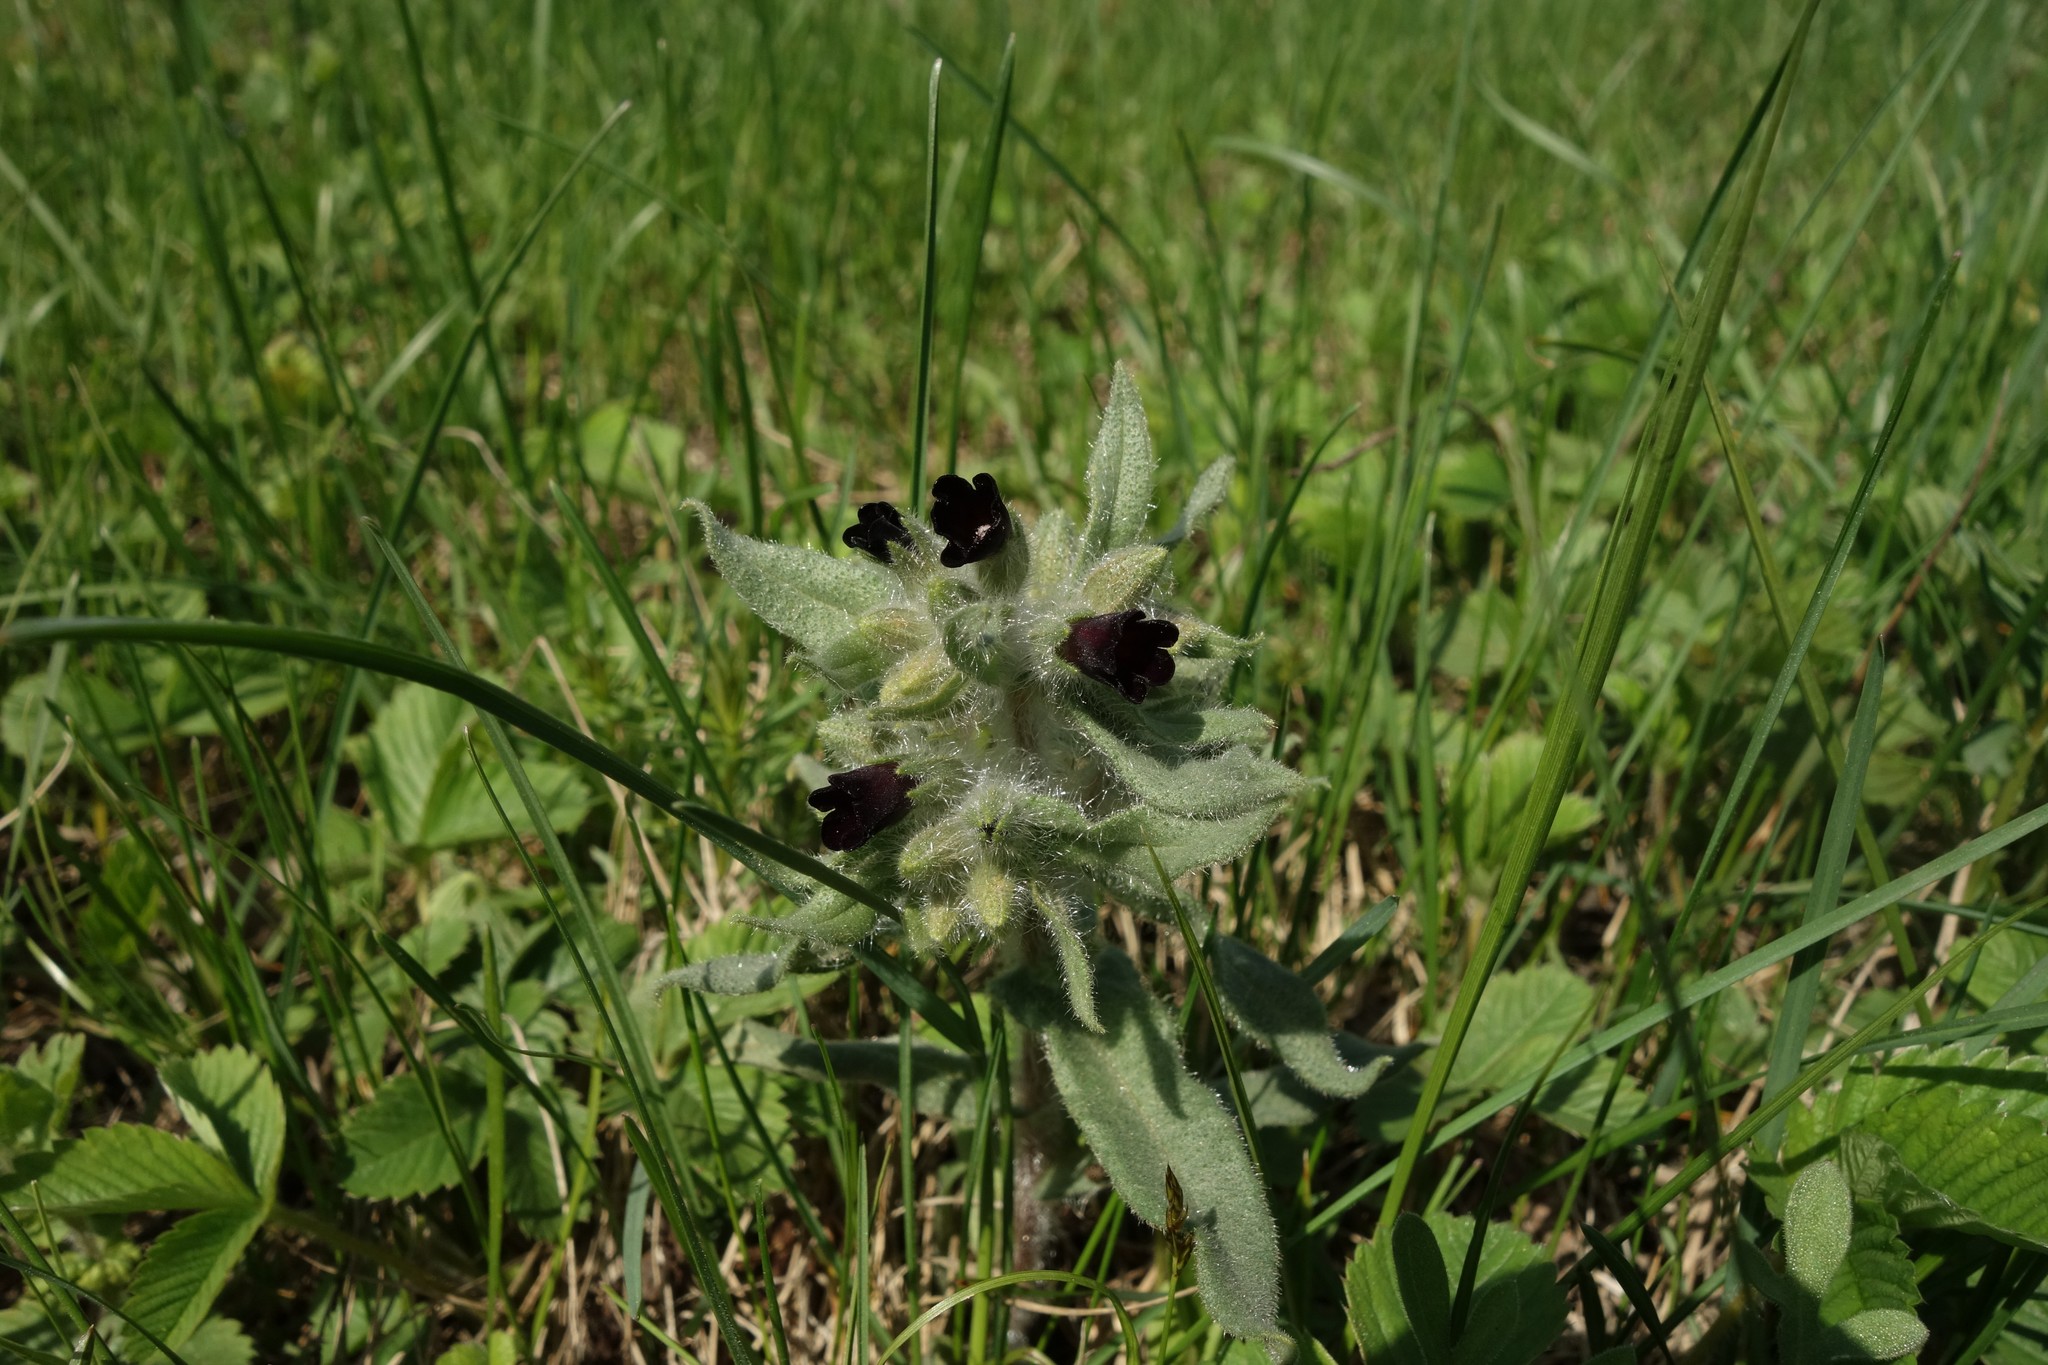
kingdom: Plantae
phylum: Tracheophyta
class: Magnoliopsida
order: Boraginales
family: Boraginaceae
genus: Nonea
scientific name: Nonea pulla
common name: Brown nonea
